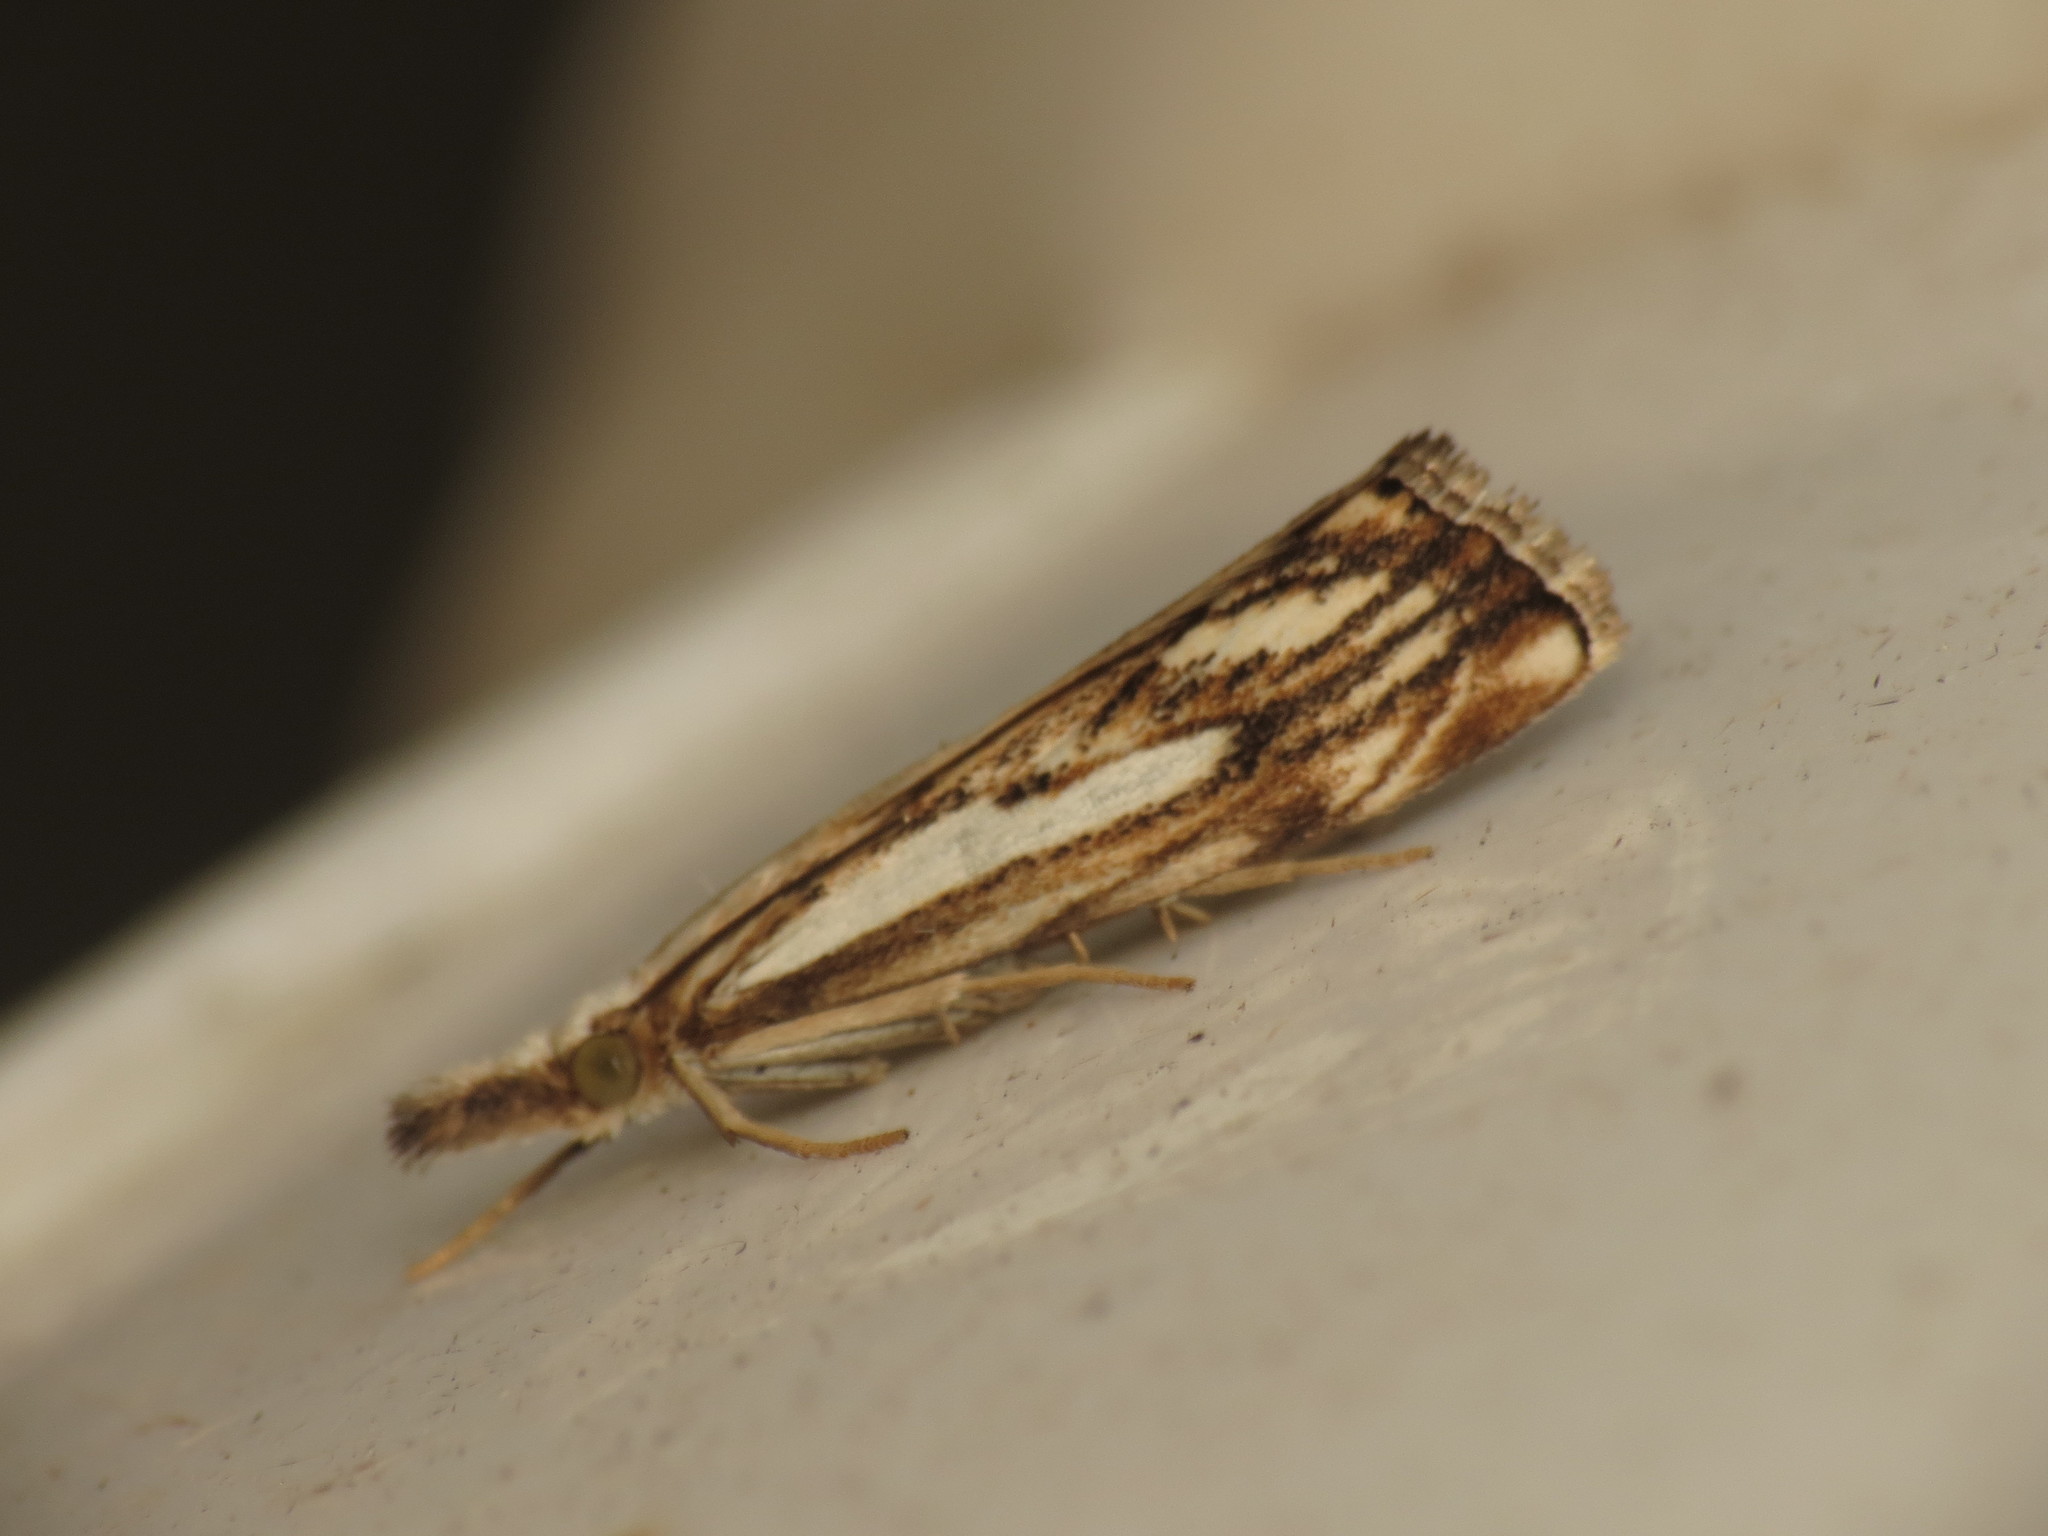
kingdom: Animalia
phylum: Arthropoda
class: Insecta
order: Lepidoptera
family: Crambidae
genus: Catoptria
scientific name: Catoptria falsella
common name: Chequered grass-veneer
